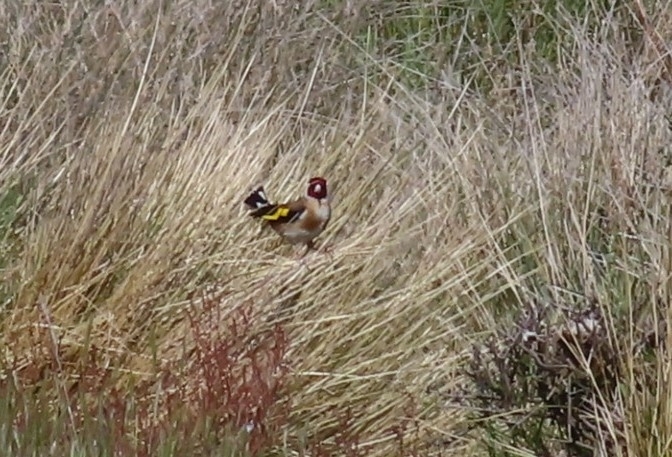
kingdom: Animalia
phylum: Chordata
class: Aves
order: Passeriformes
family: Fringillidae
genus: Carduelis
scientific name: Carduelis carduelis
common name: European goldfinch
